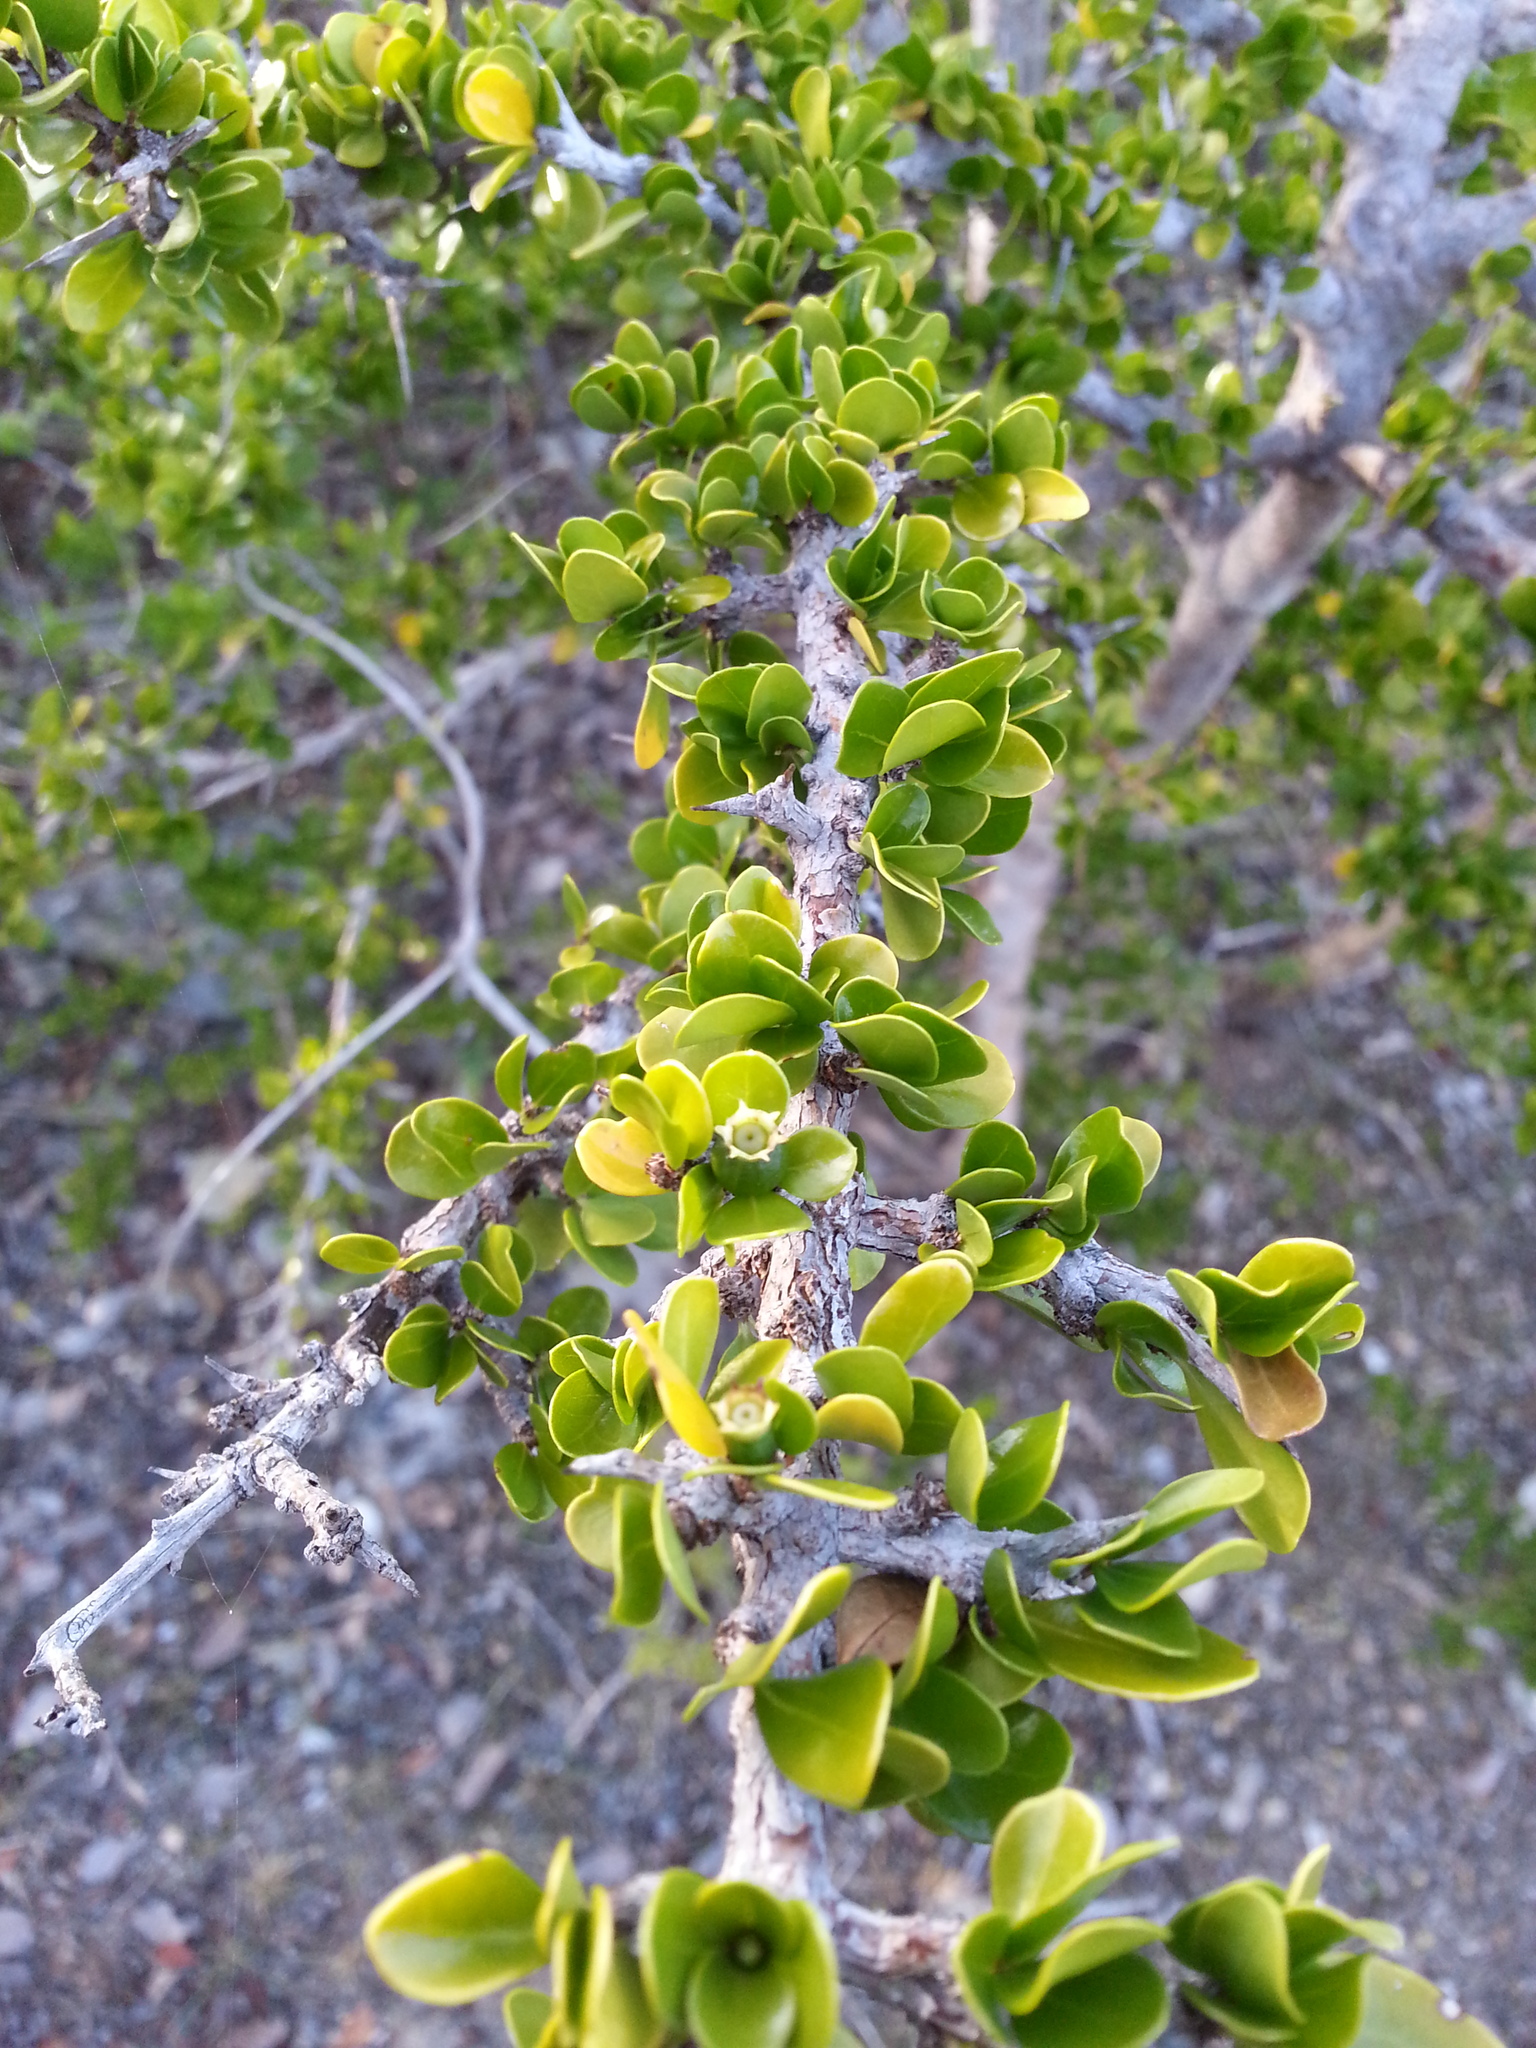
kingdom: Plantae
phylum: Tracheophyta
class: Magnoliopsida
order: Gentianales
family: Rubiaceae
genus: Randia
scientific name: Randia aculeata
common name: Inkberry
